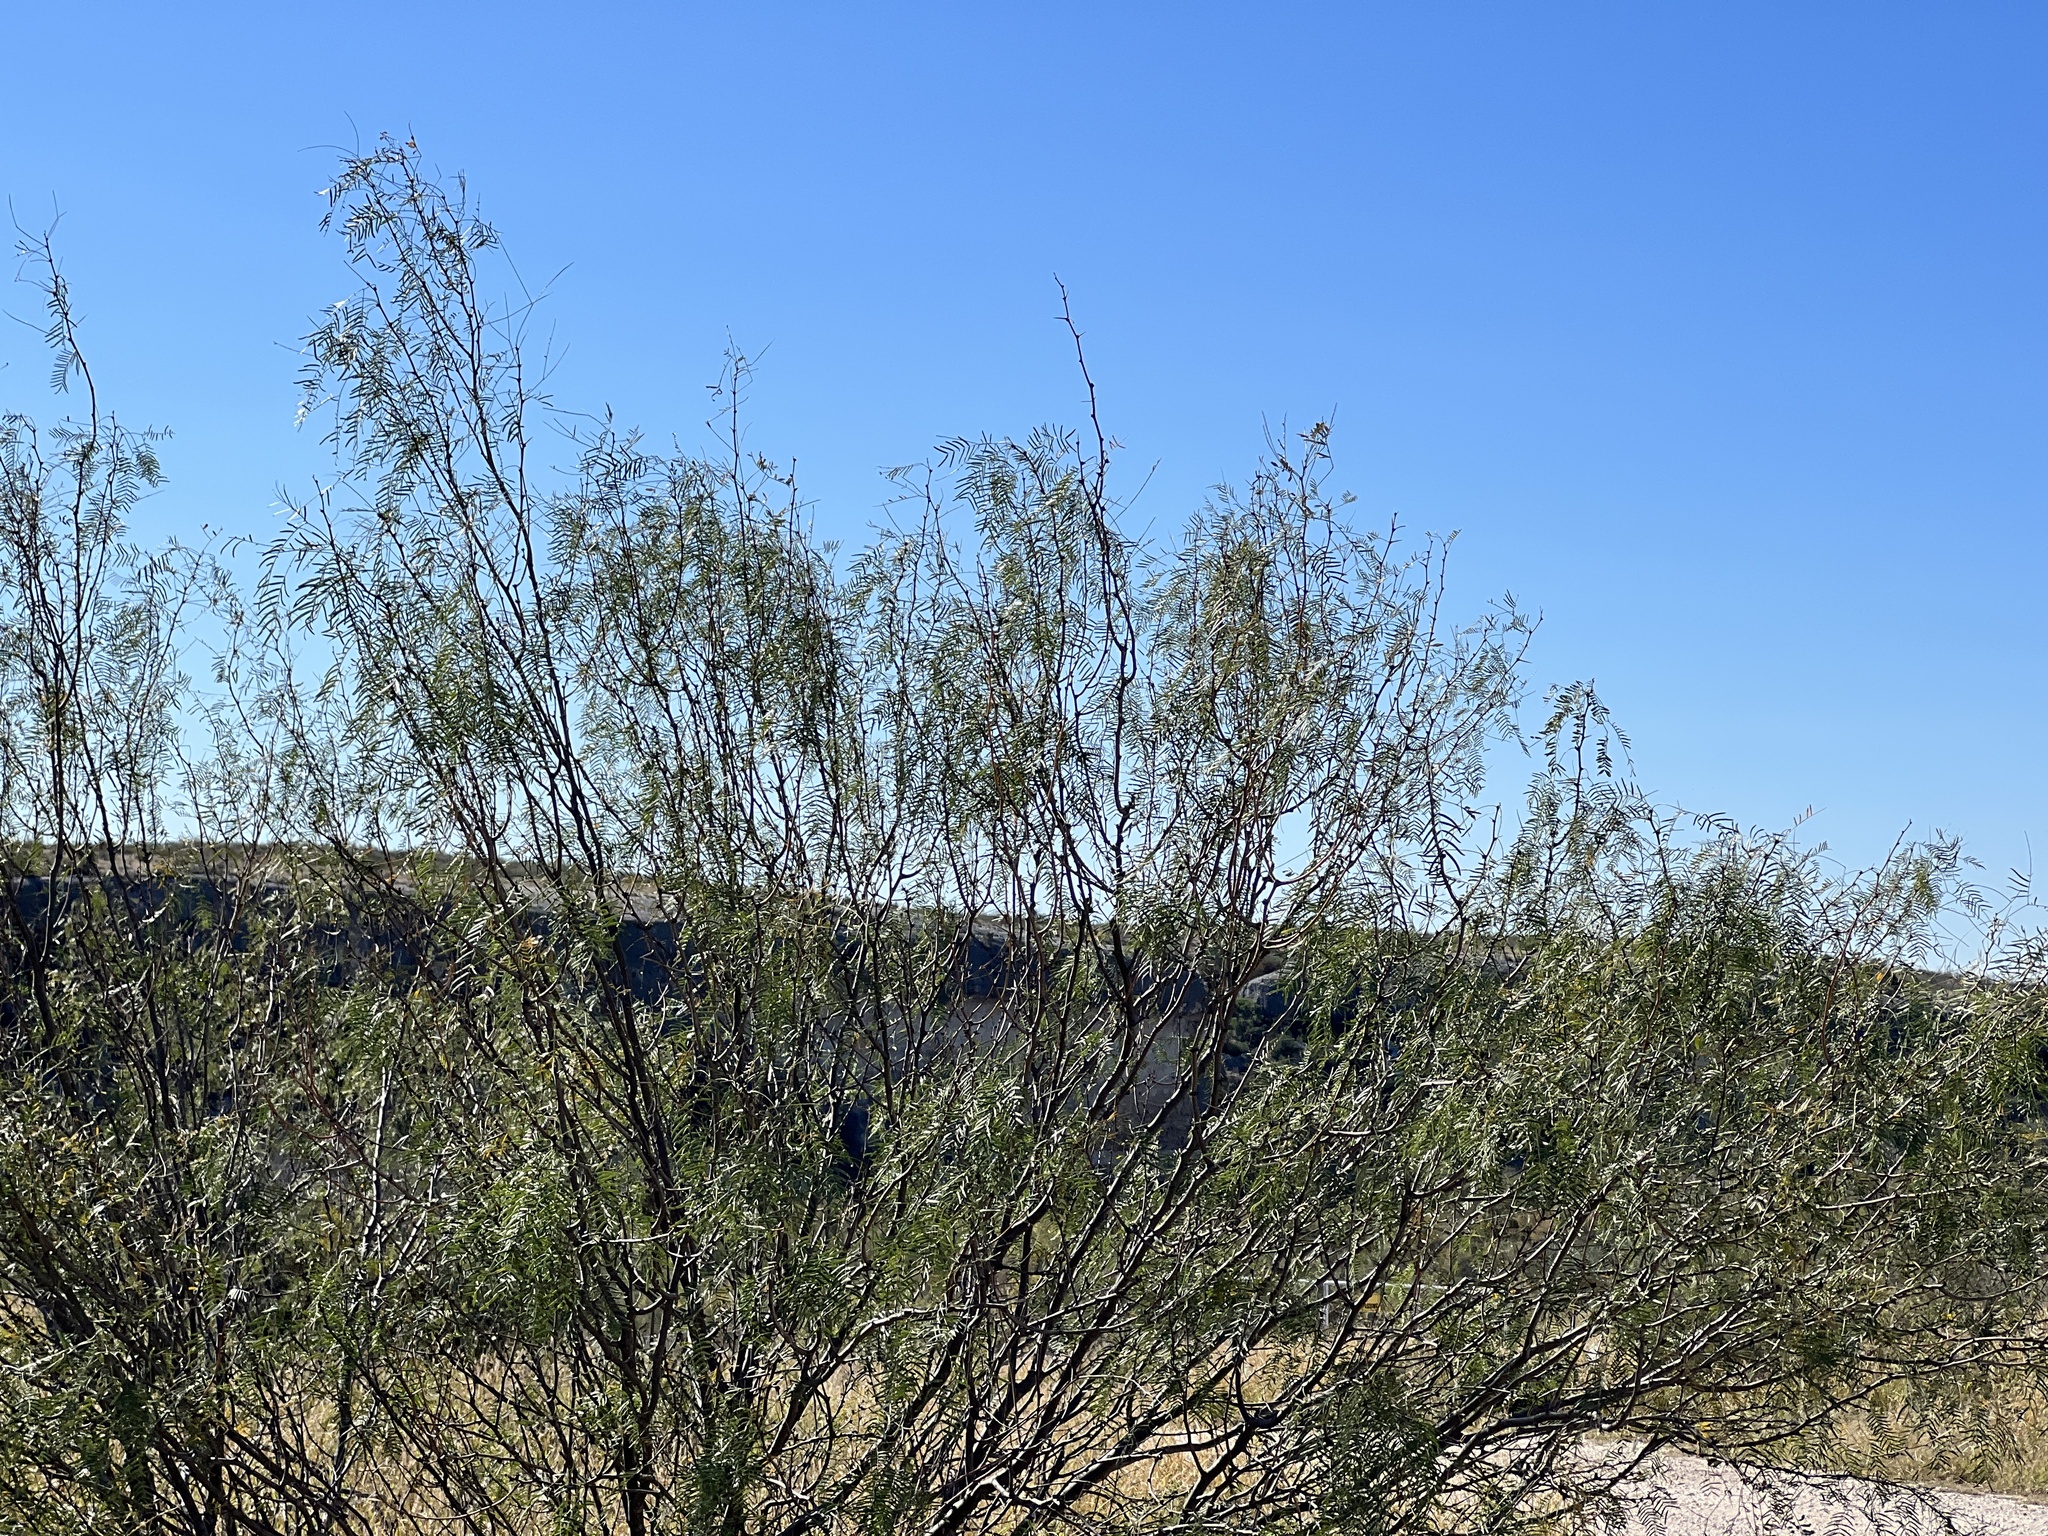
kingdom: Plantae
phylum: Tracheophyta
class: Magnoliopsida
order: Fabales
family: Fabaceae
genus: Prosopis
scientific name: Prosopis glandulosa
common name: Honey mesquite
